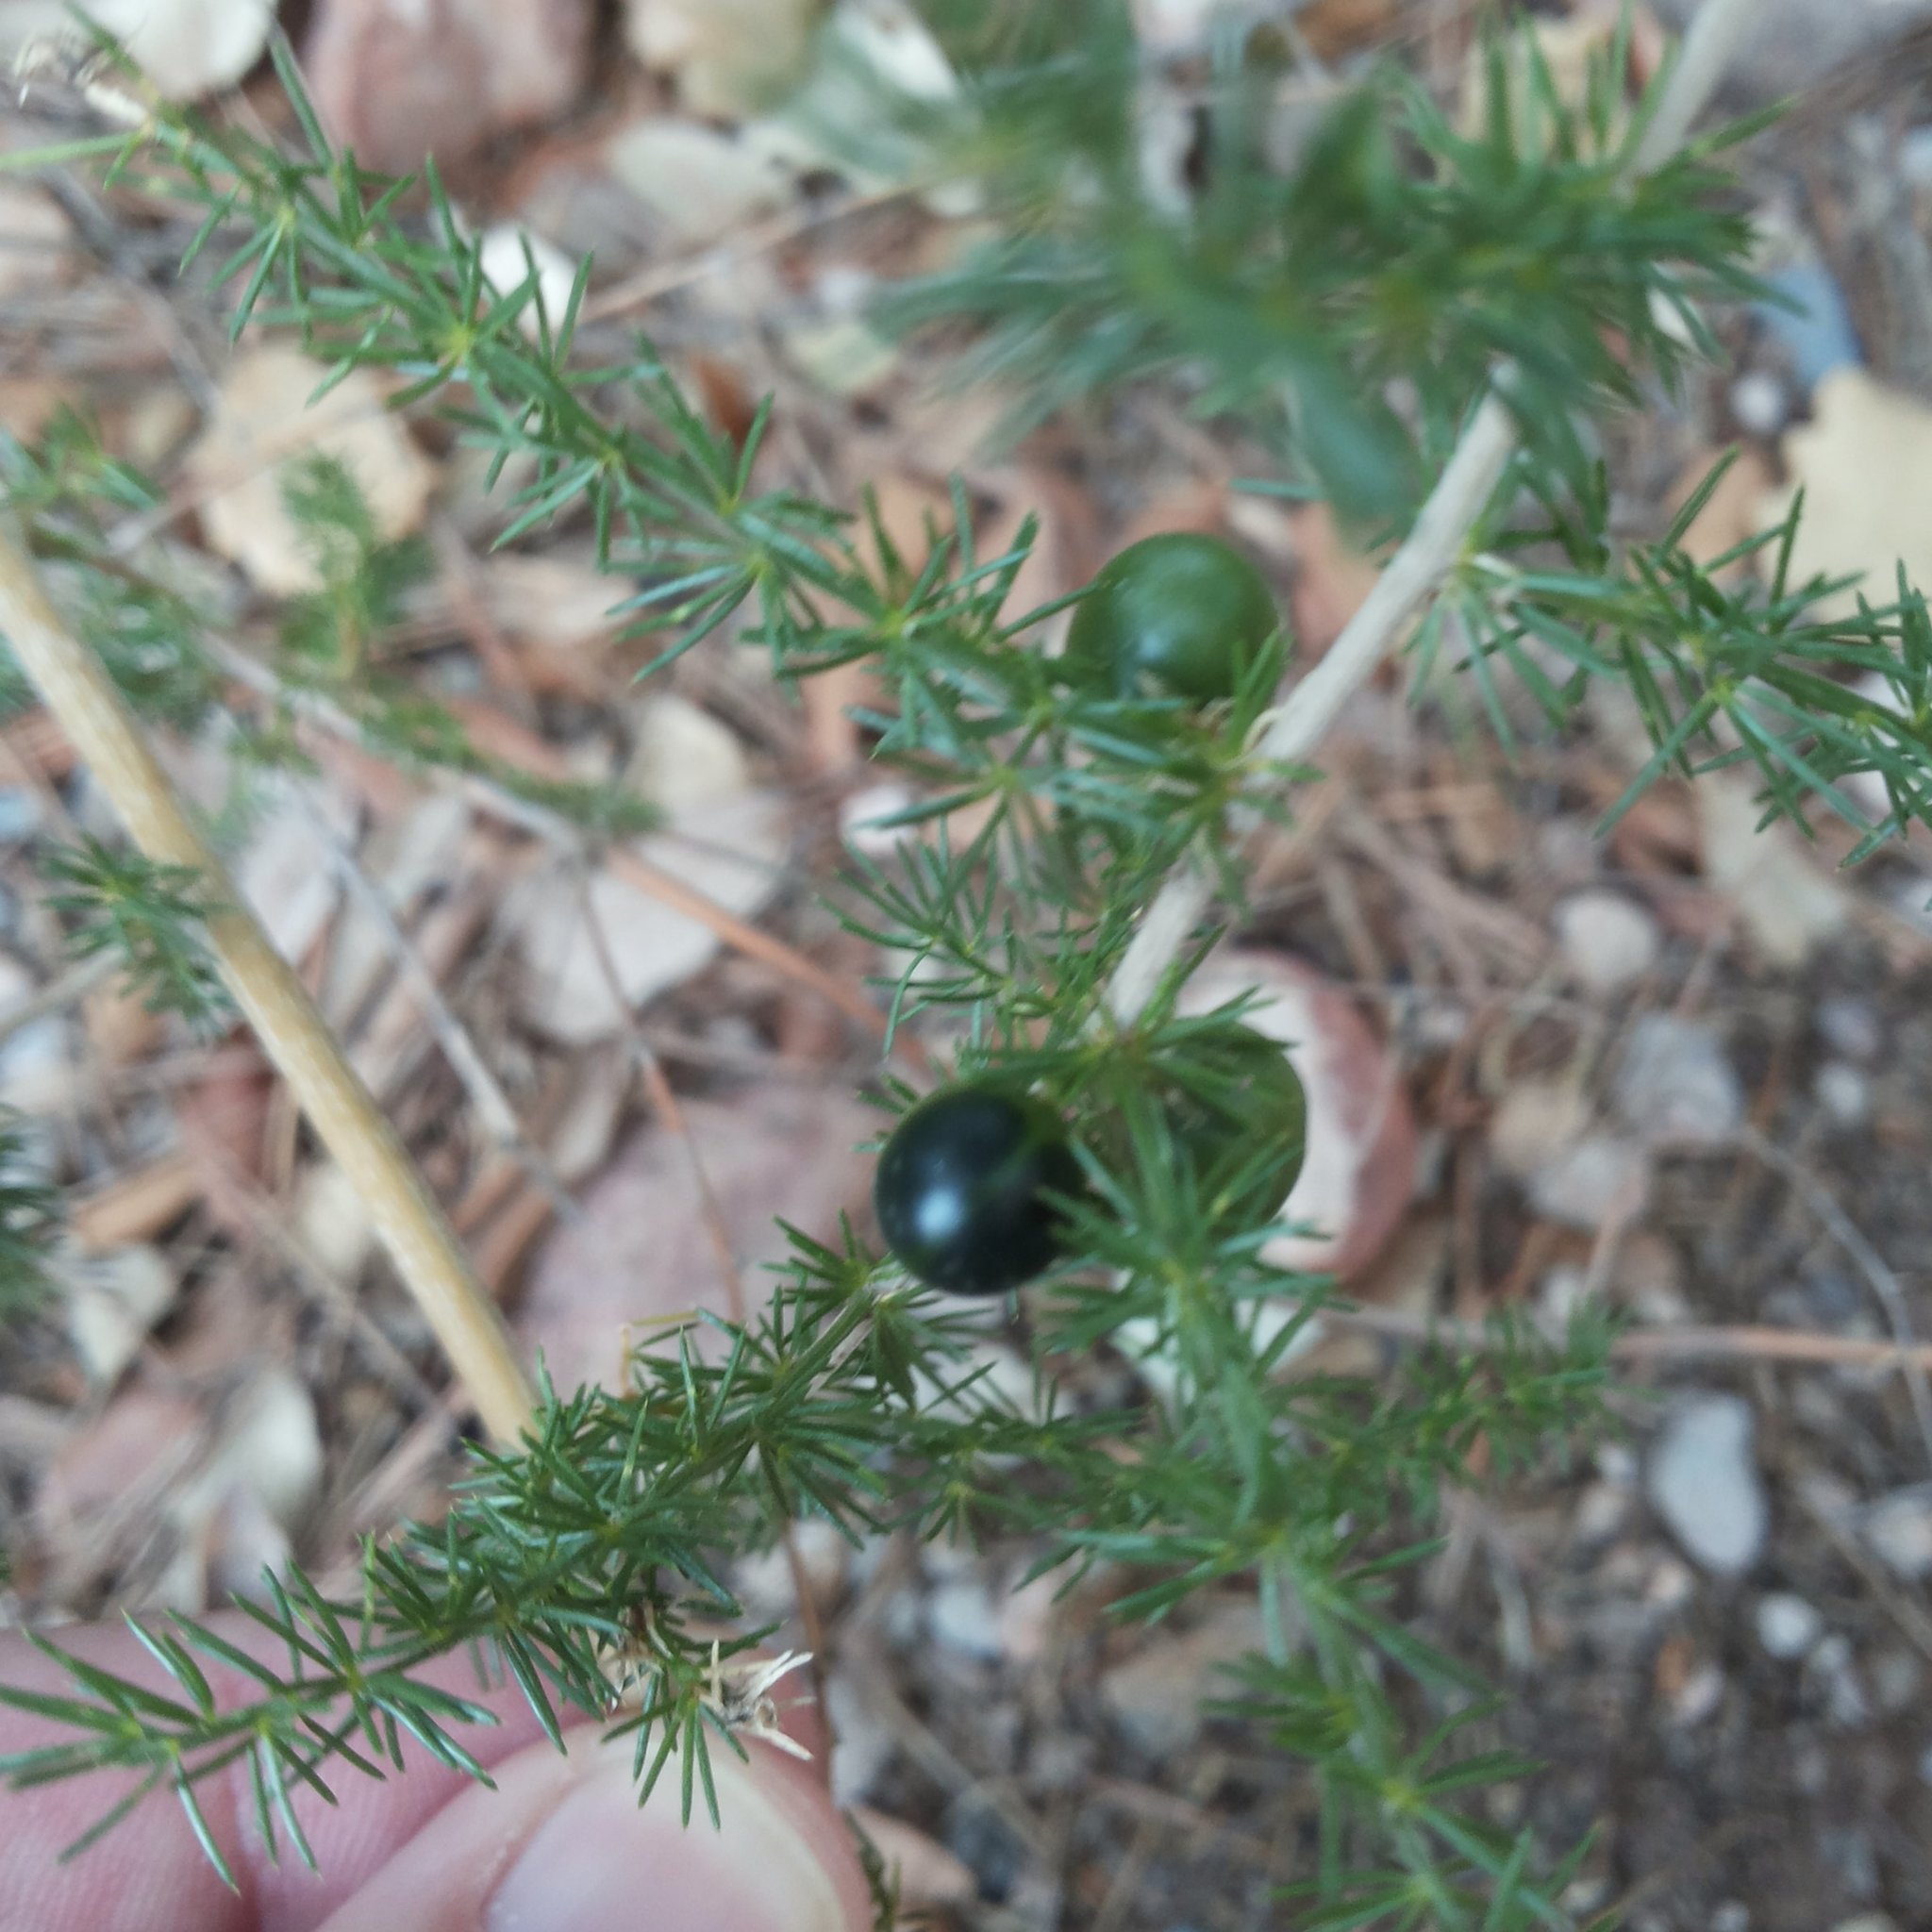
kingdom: Plantae
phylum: Tracheophyta
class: Liliopsida
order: Asparagales
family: Asparagaceae
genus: Asparagus
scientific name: Asparagus acutifolius
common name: Wild asparagus
